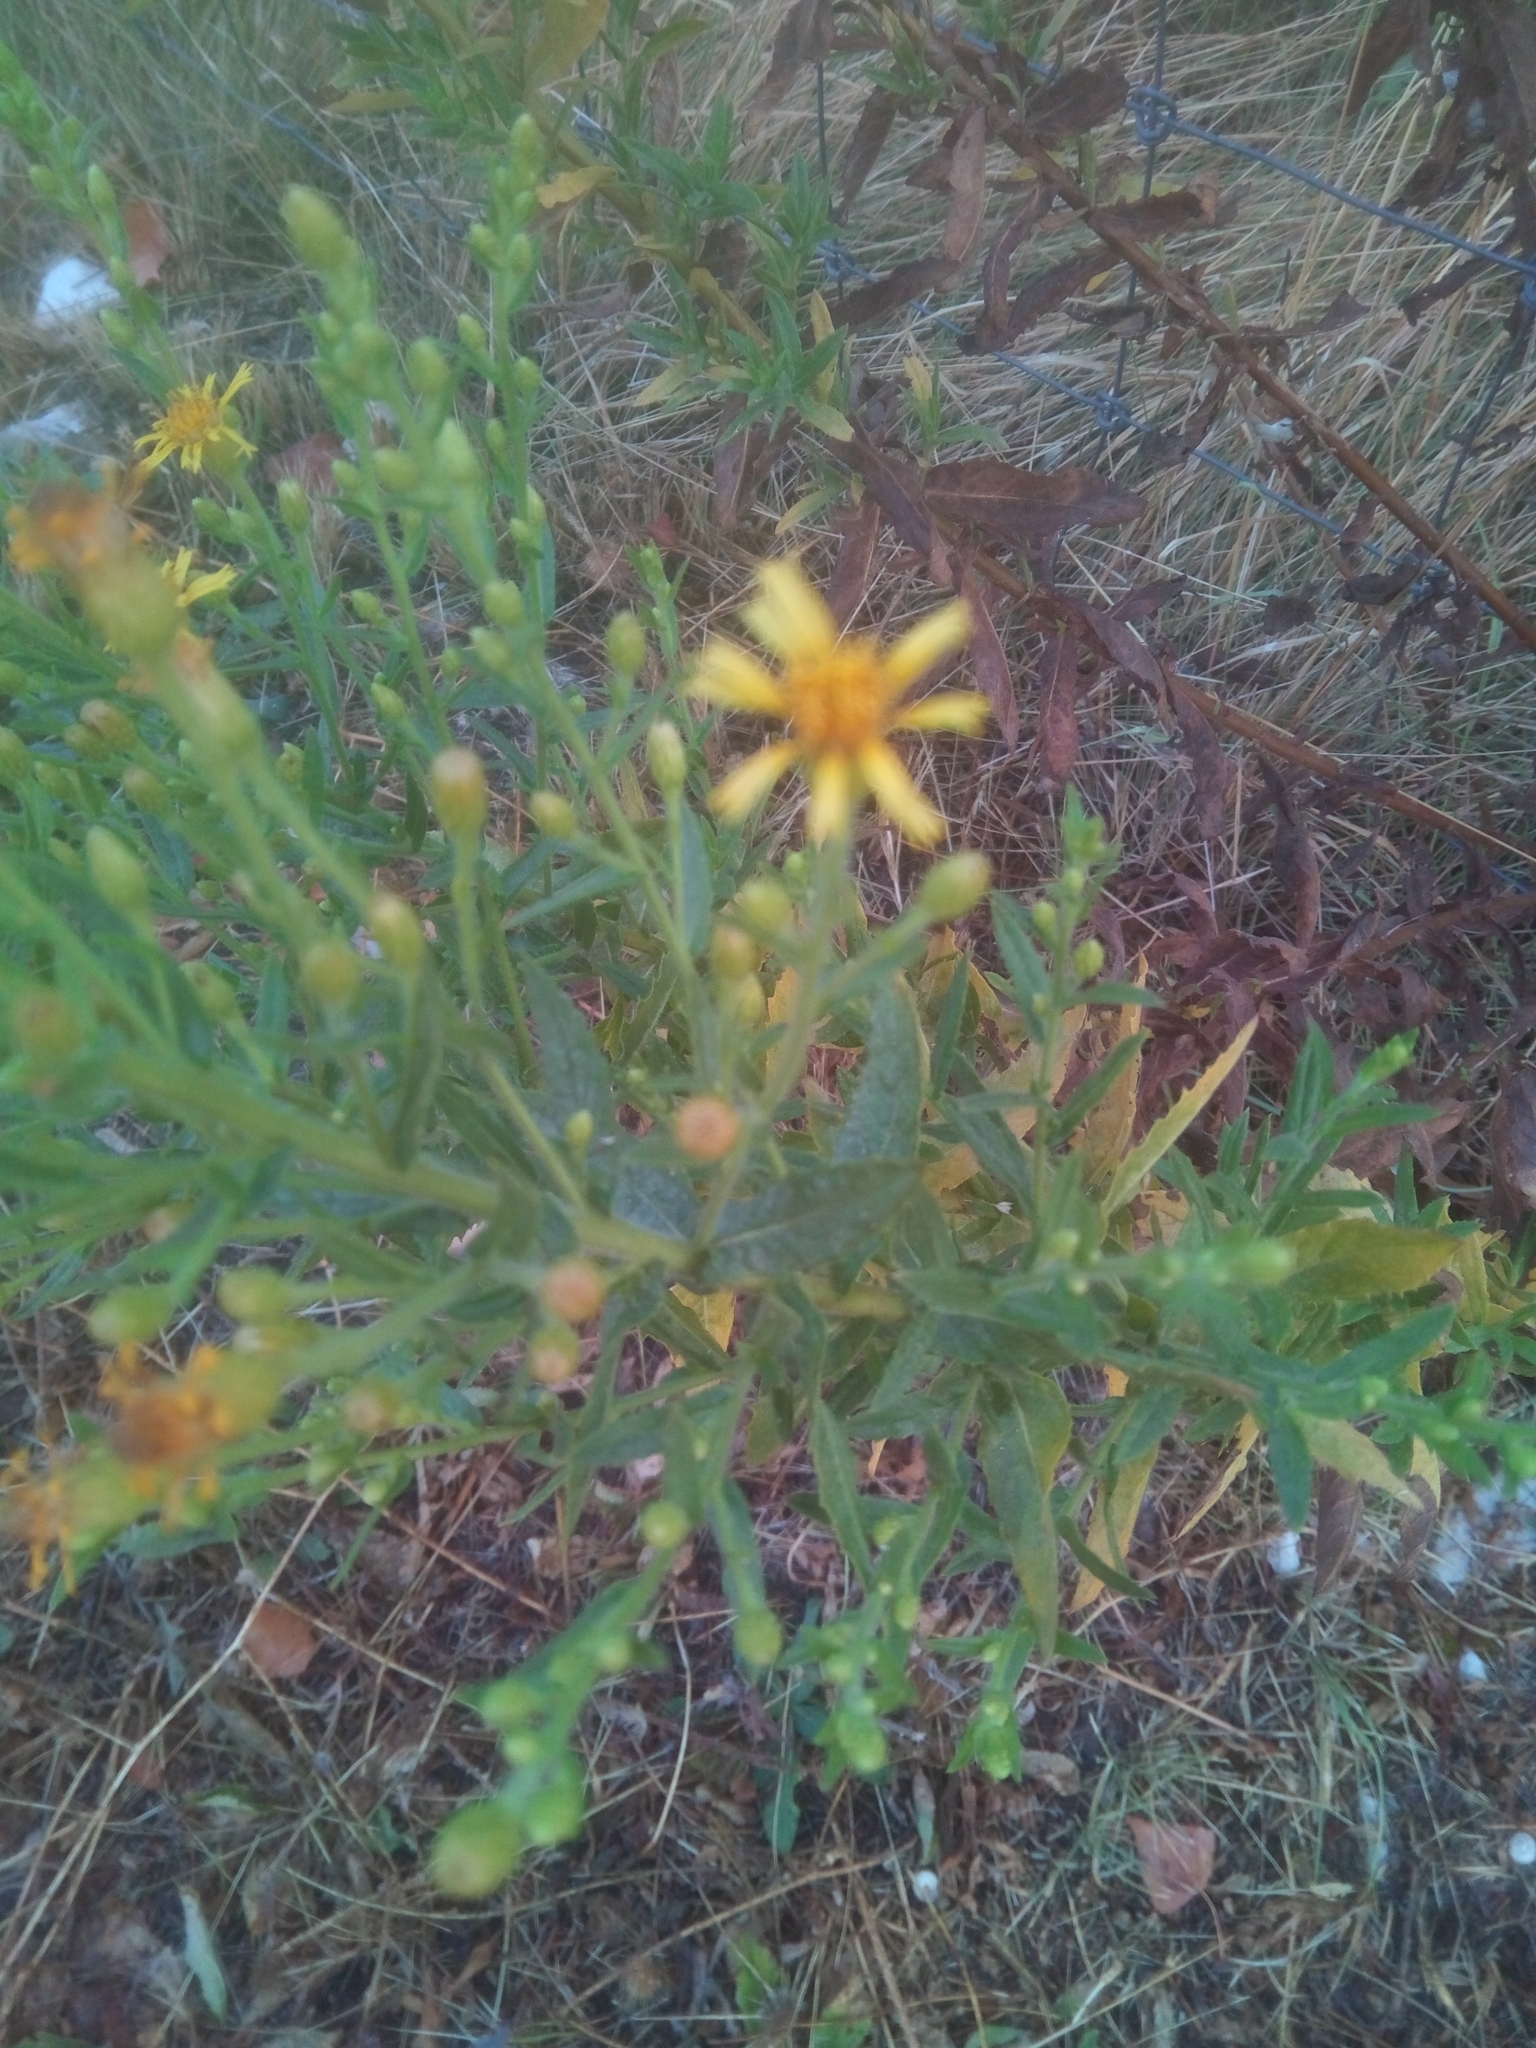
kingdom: Plantae
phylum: Tracheophyta
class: Magnoliopsida
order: Asterales
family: Asteraceae
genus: Dittrichia
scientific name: Dittrichia viscosa
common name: Woody fleabane
